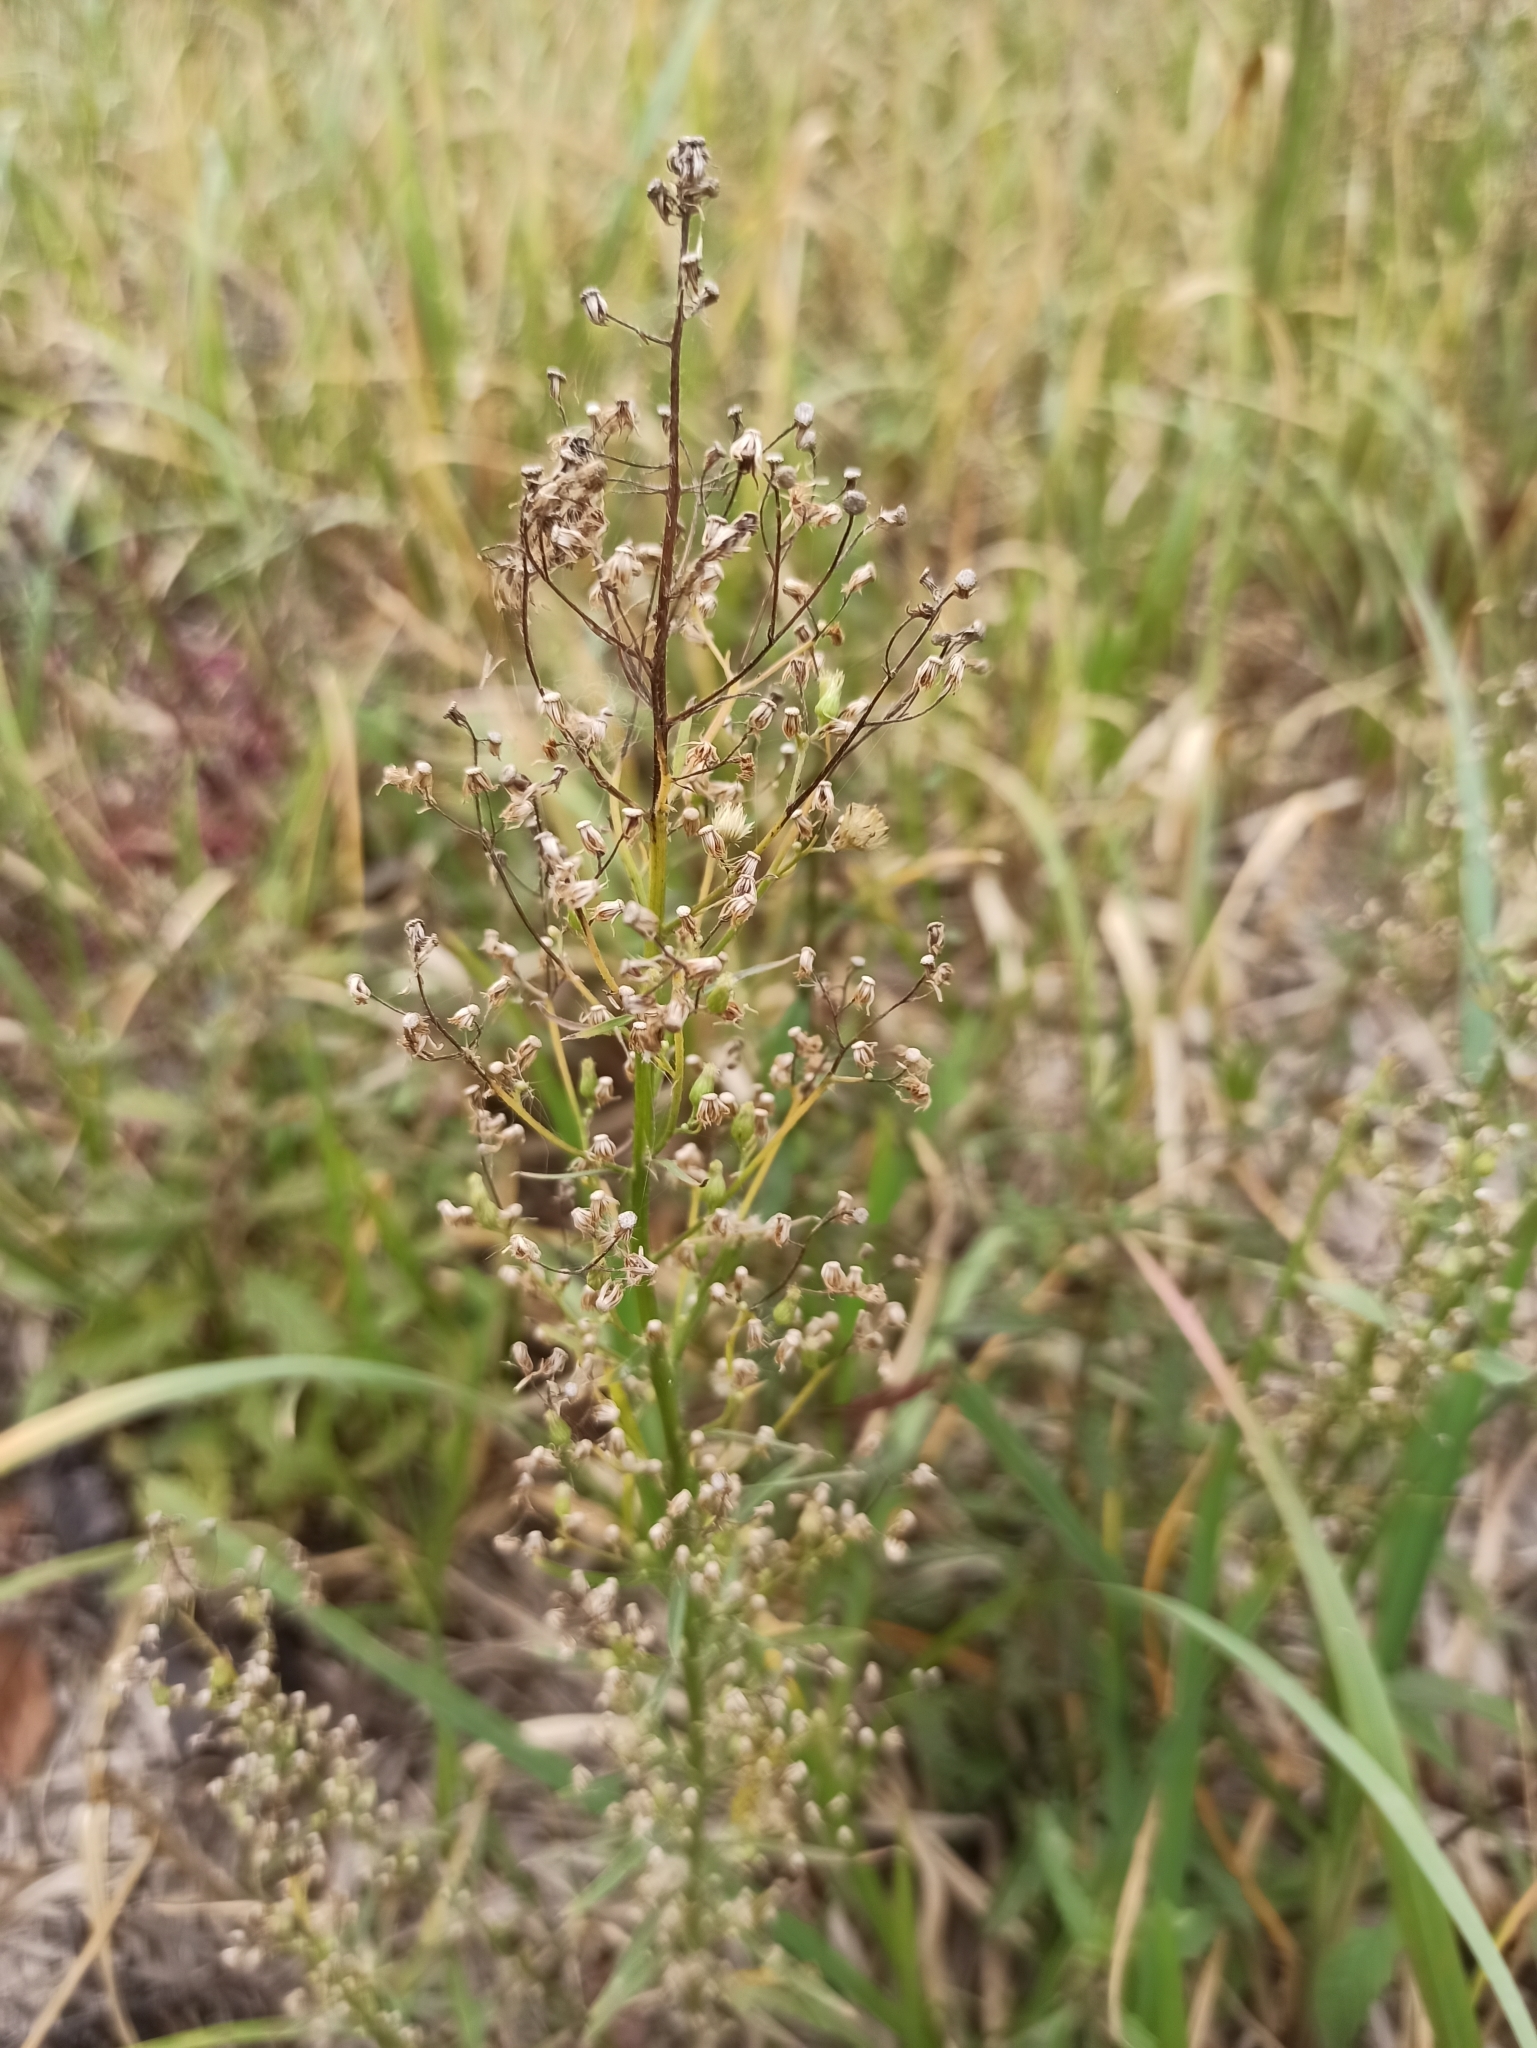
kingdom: Plantae
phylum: Tracheophyta
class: Magnoliopsida
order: Asterales
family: Asteraceae
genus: Erigeron
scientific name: Erigeron canadensis
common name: Canadian fleabane
